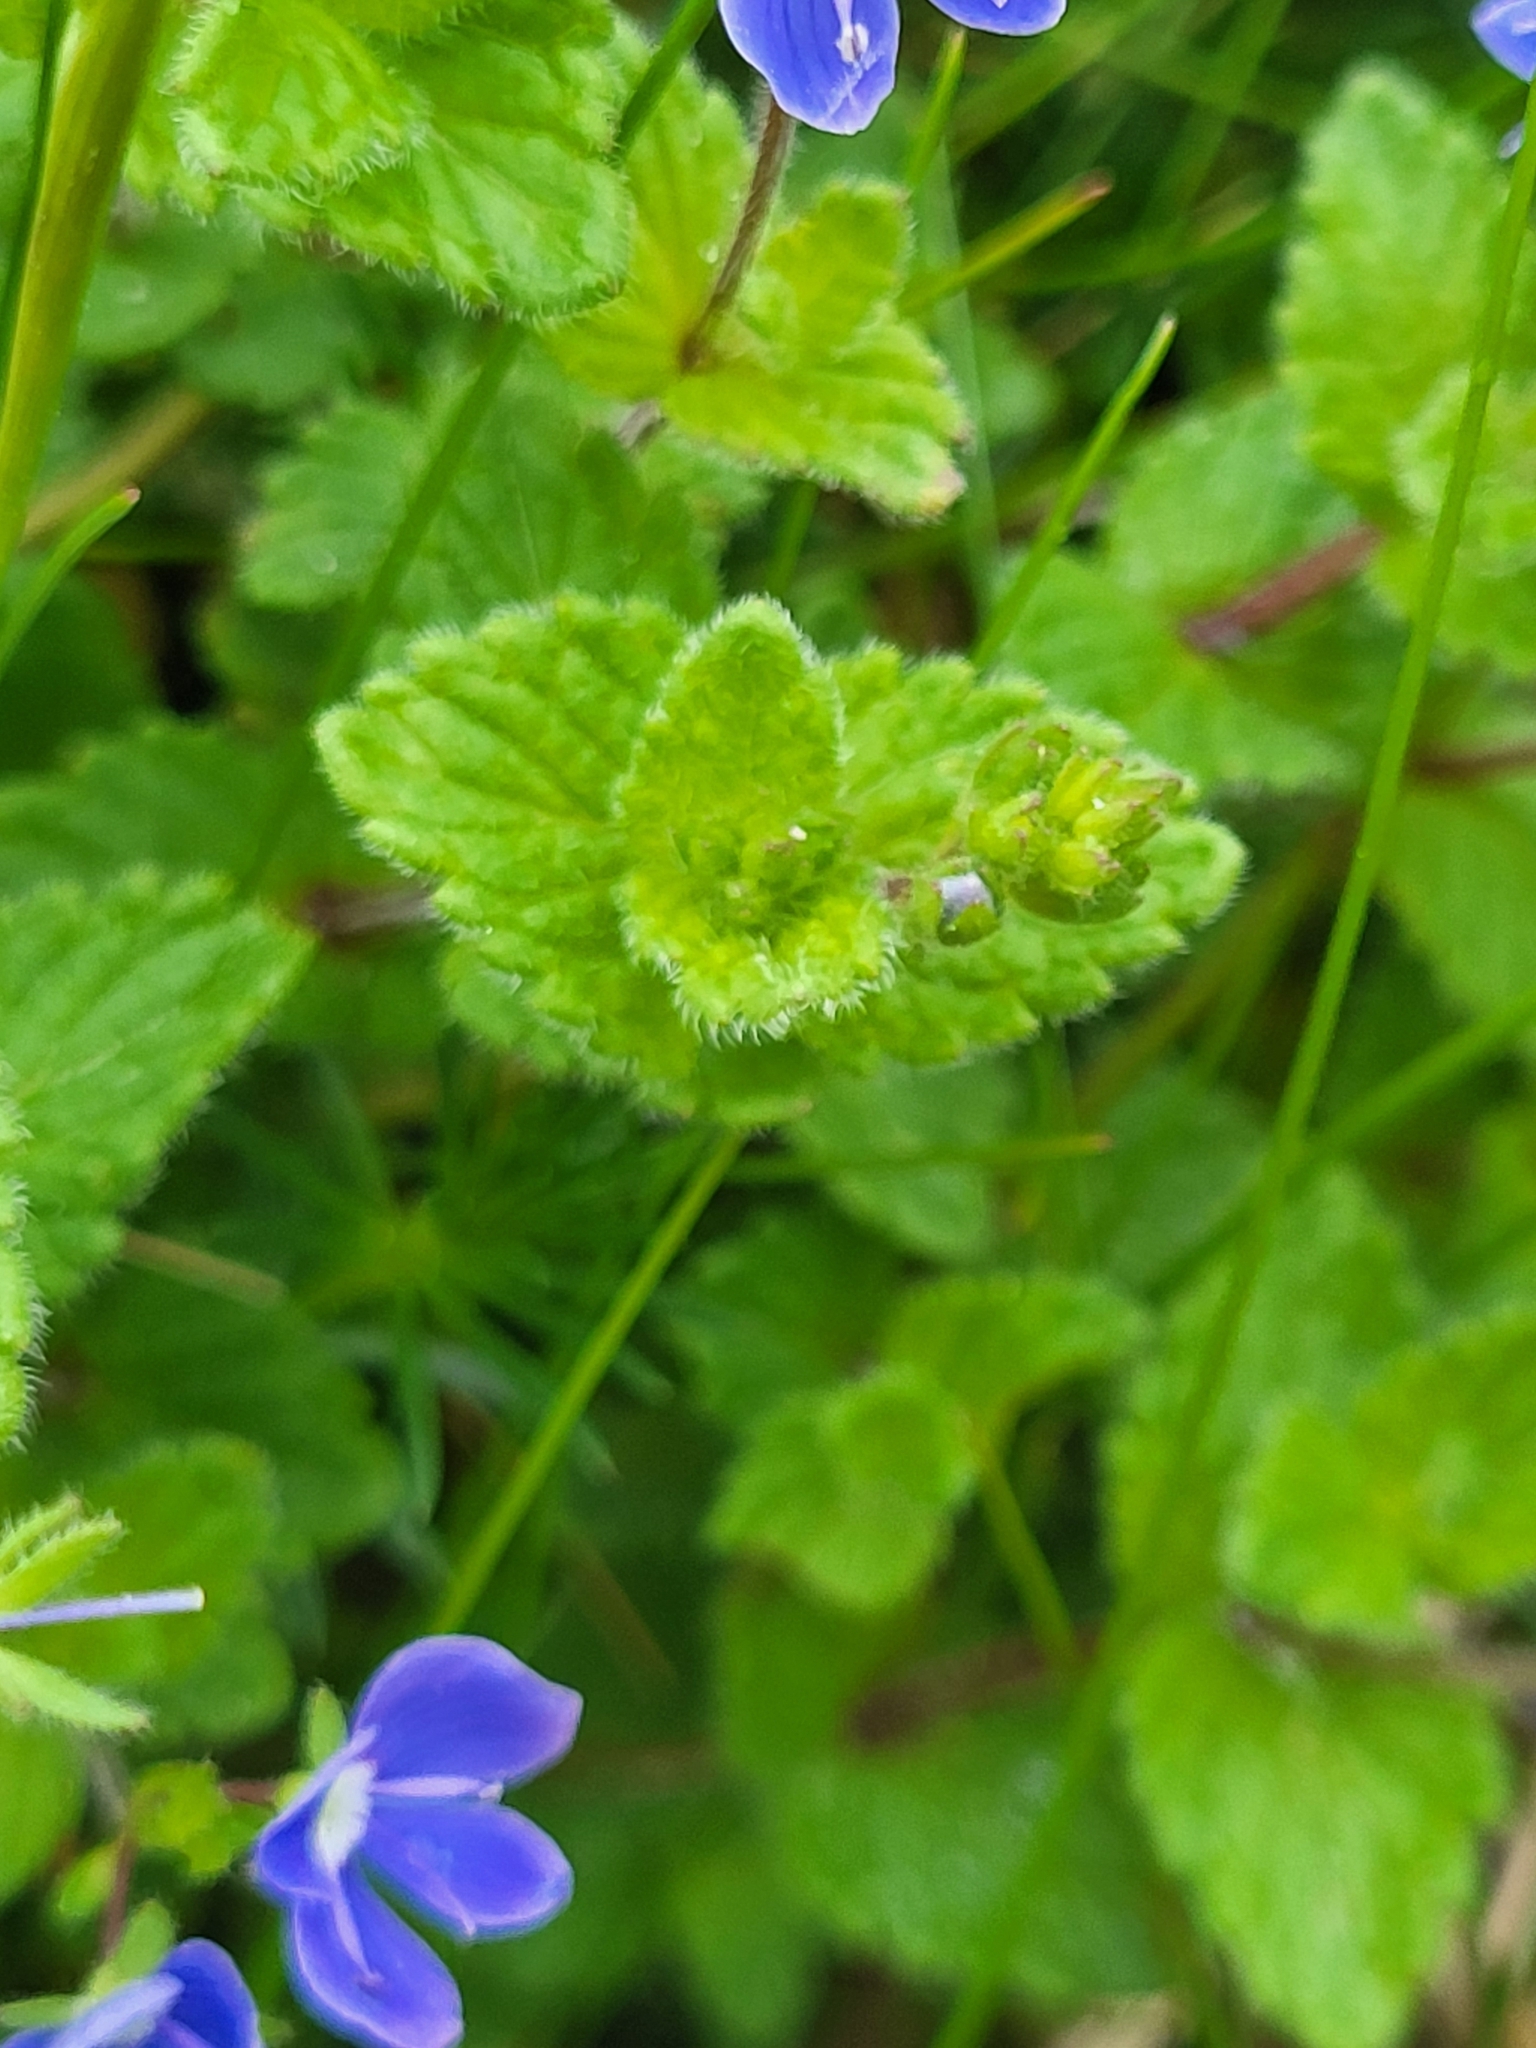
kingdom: Plantae
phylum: Tracheophyta
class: Magnoliopsida
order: Lamiales
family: Plantaginaceae
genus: Veronica
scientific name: Veronica chamaedrys
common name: Germander speedwell
